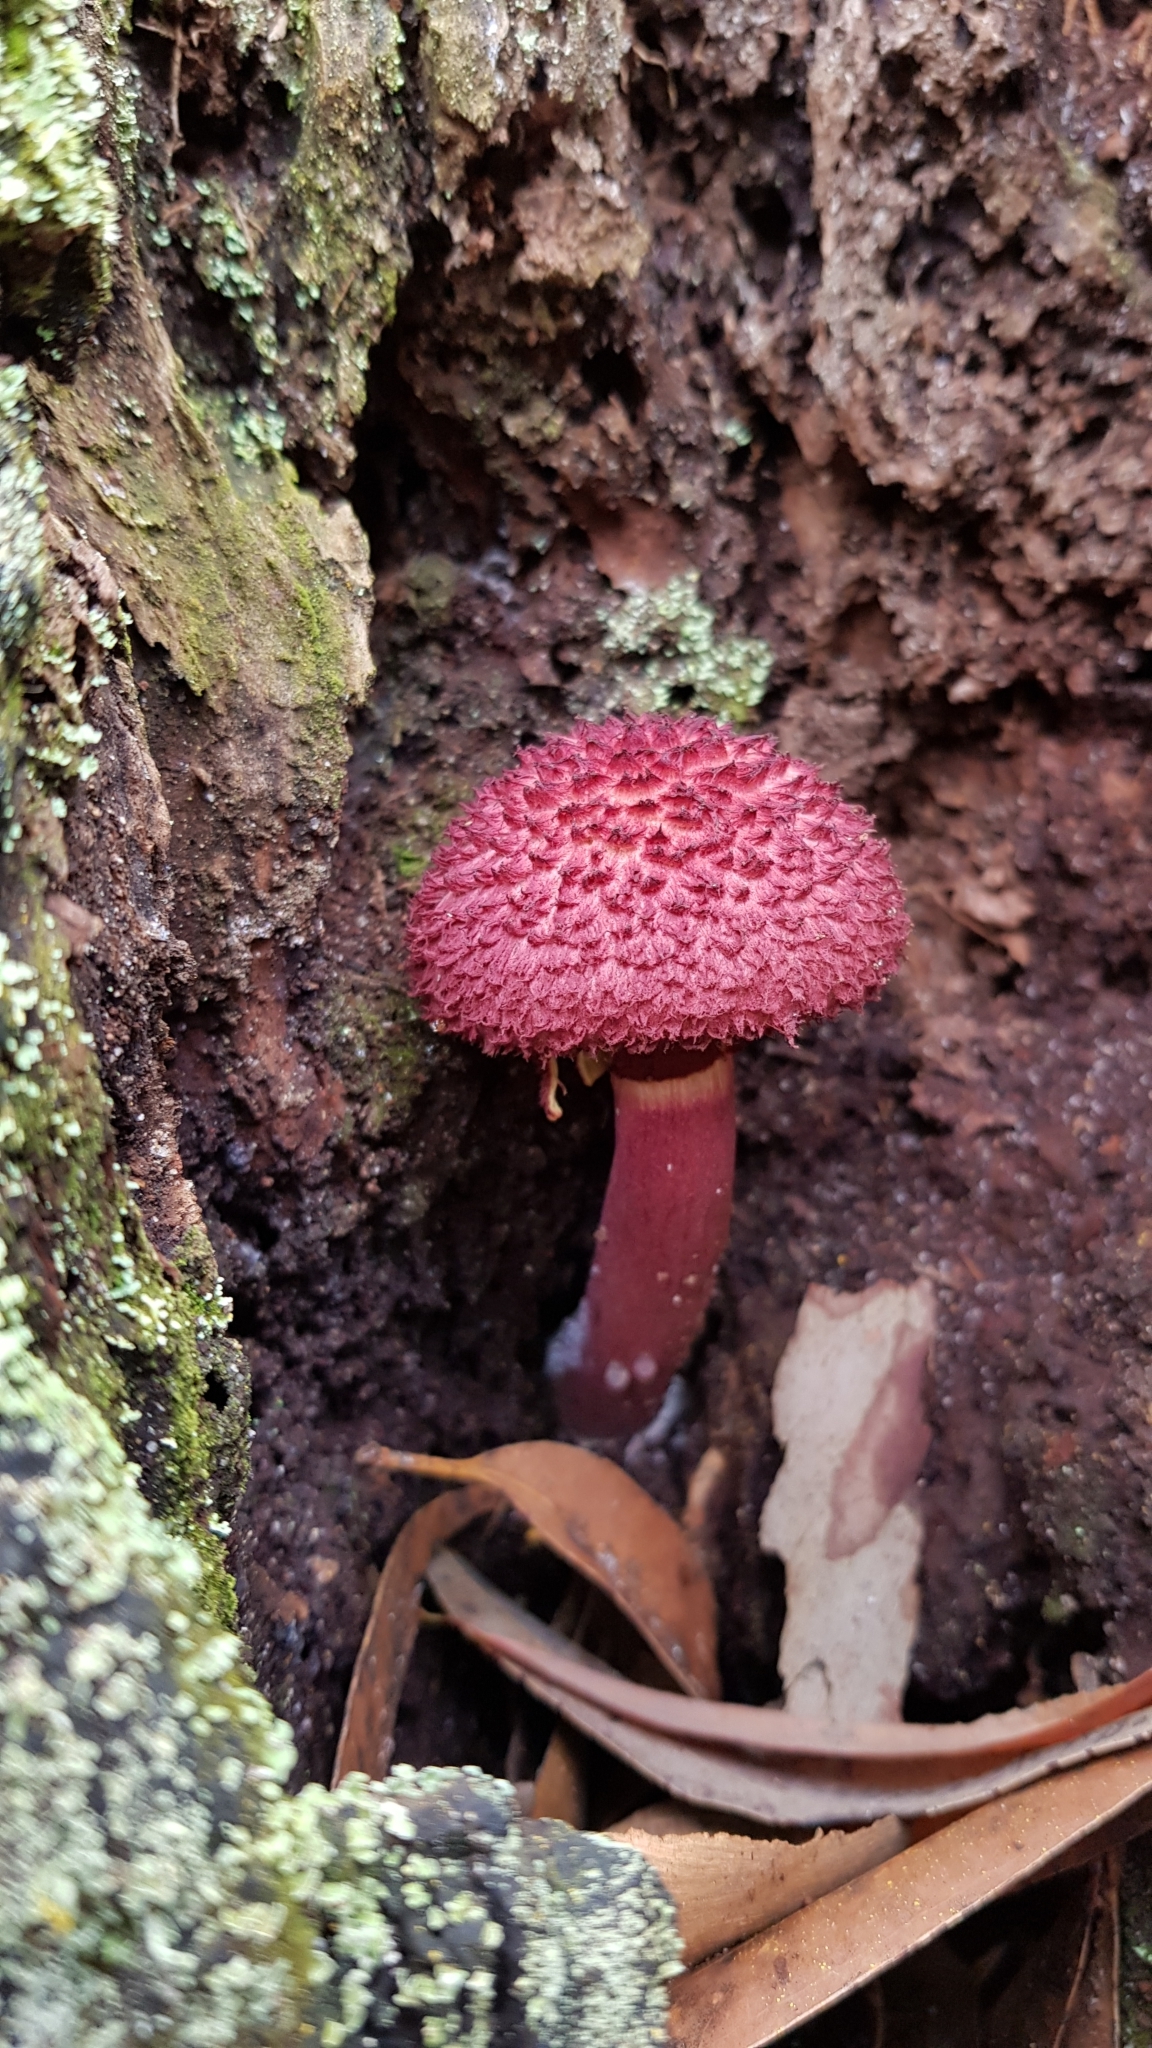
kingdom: Fungi
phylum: Basidiomycota
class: Agaricomycetes
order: Boletales
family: Boletaceae
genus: Boletellus
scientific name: Boletellus emodensis
